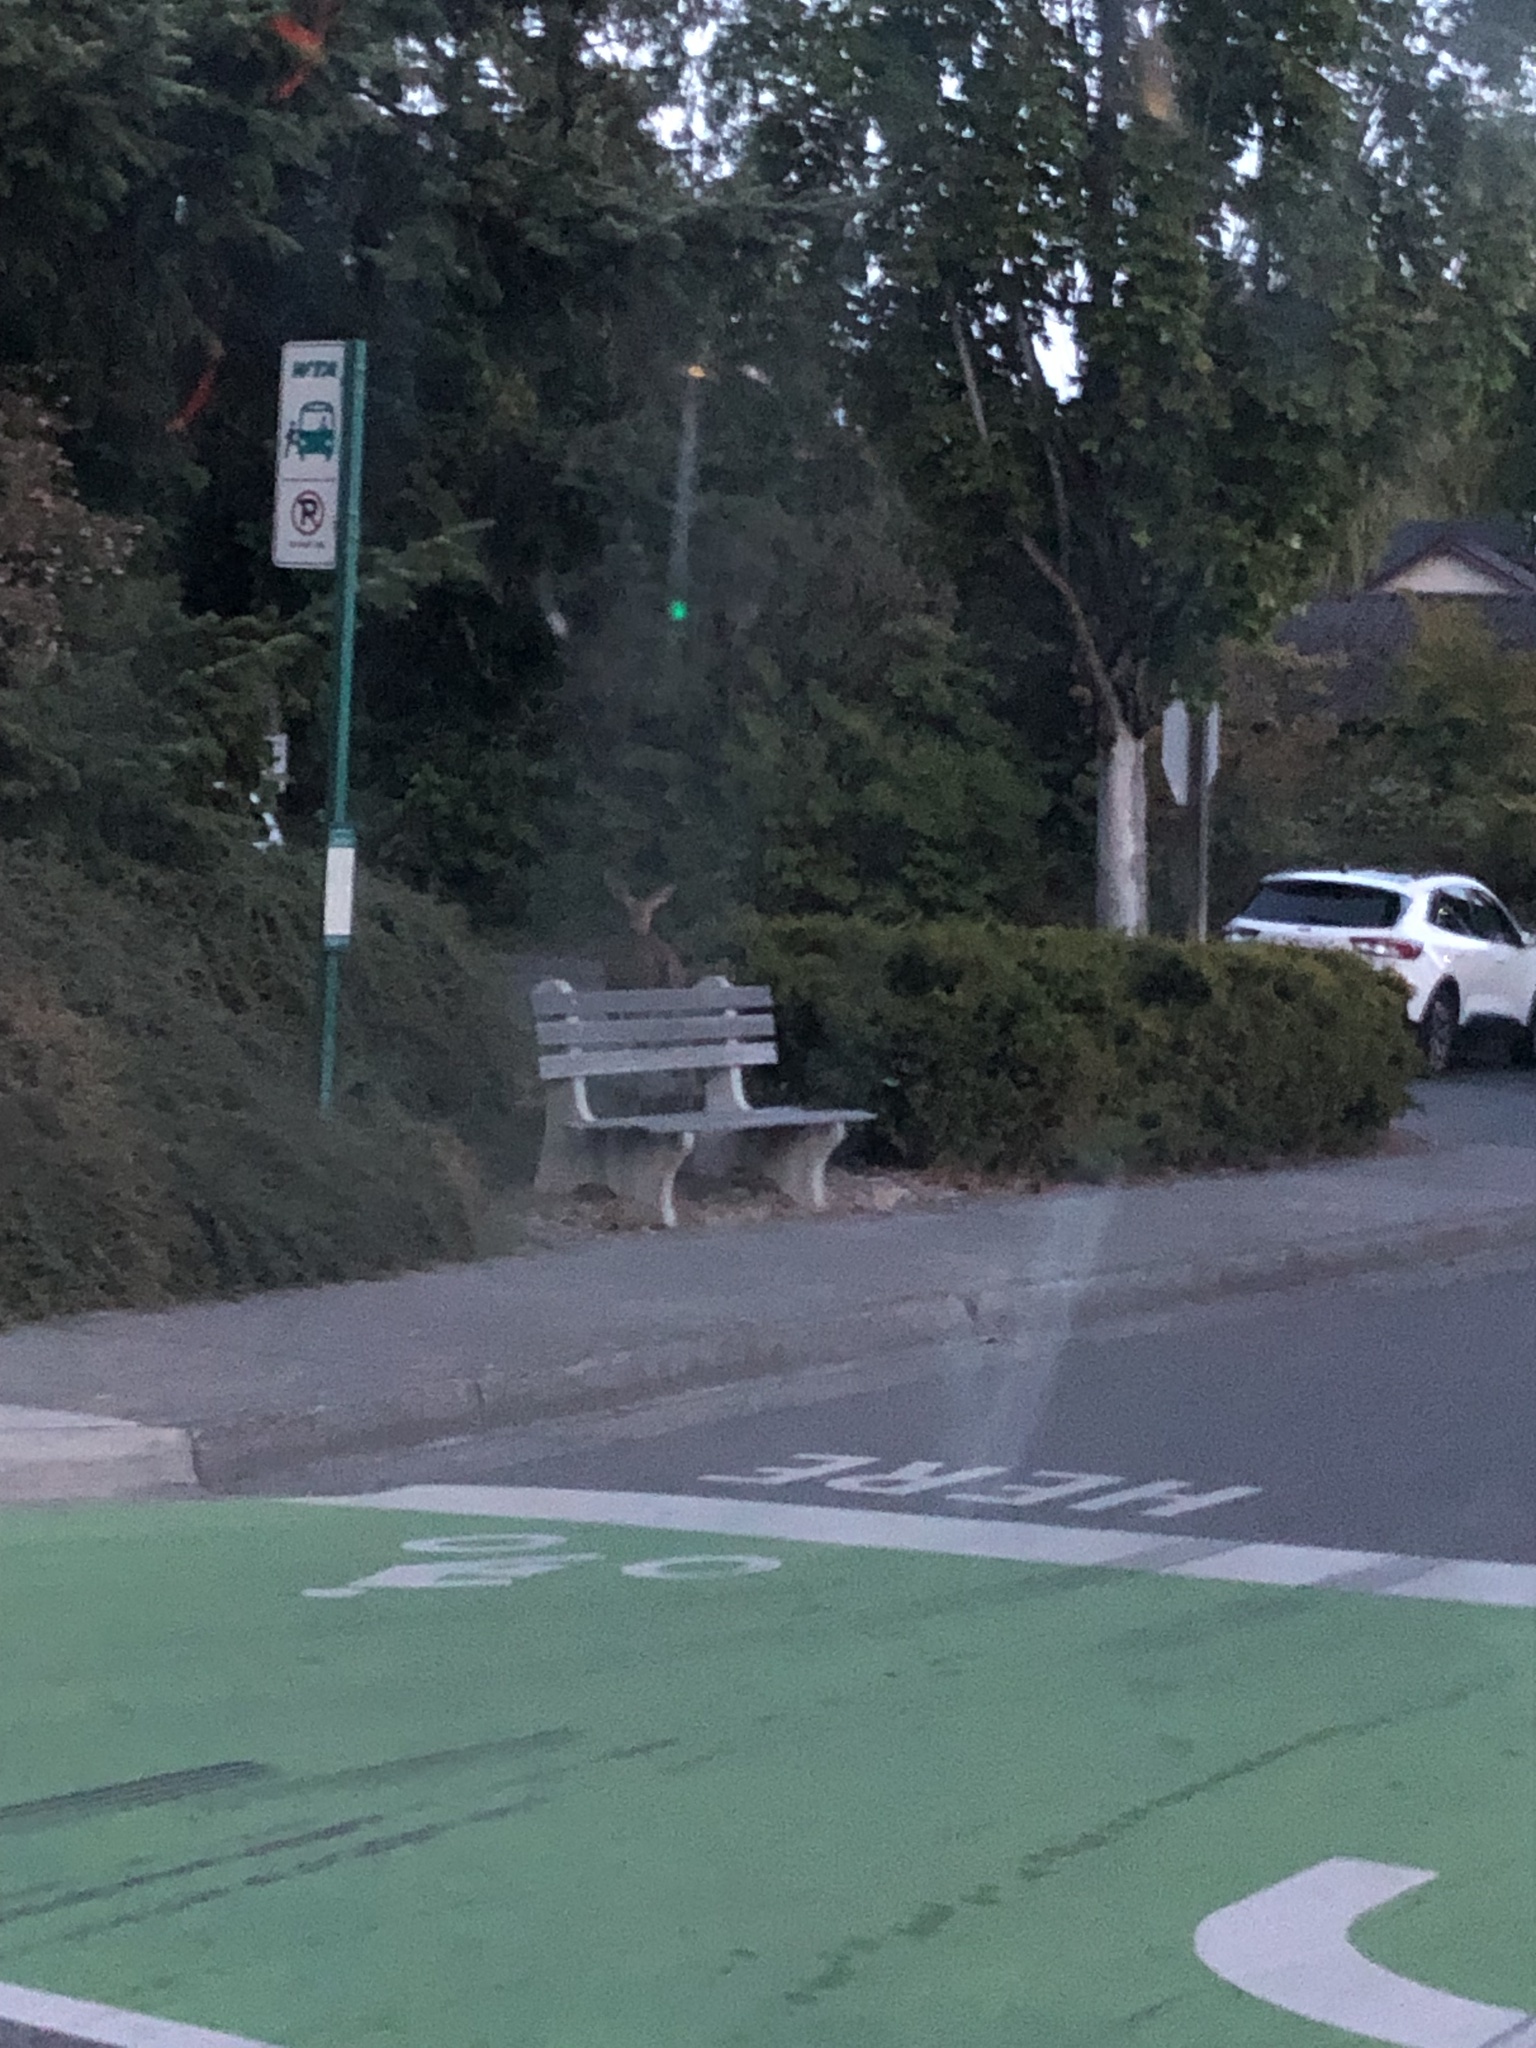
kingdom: Animalia
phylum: Chordata
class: Mammalia
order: Artiodactyla
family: Cervidae
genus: Odocoileus
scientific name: Odocoileus hemionus
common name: Mule deer
